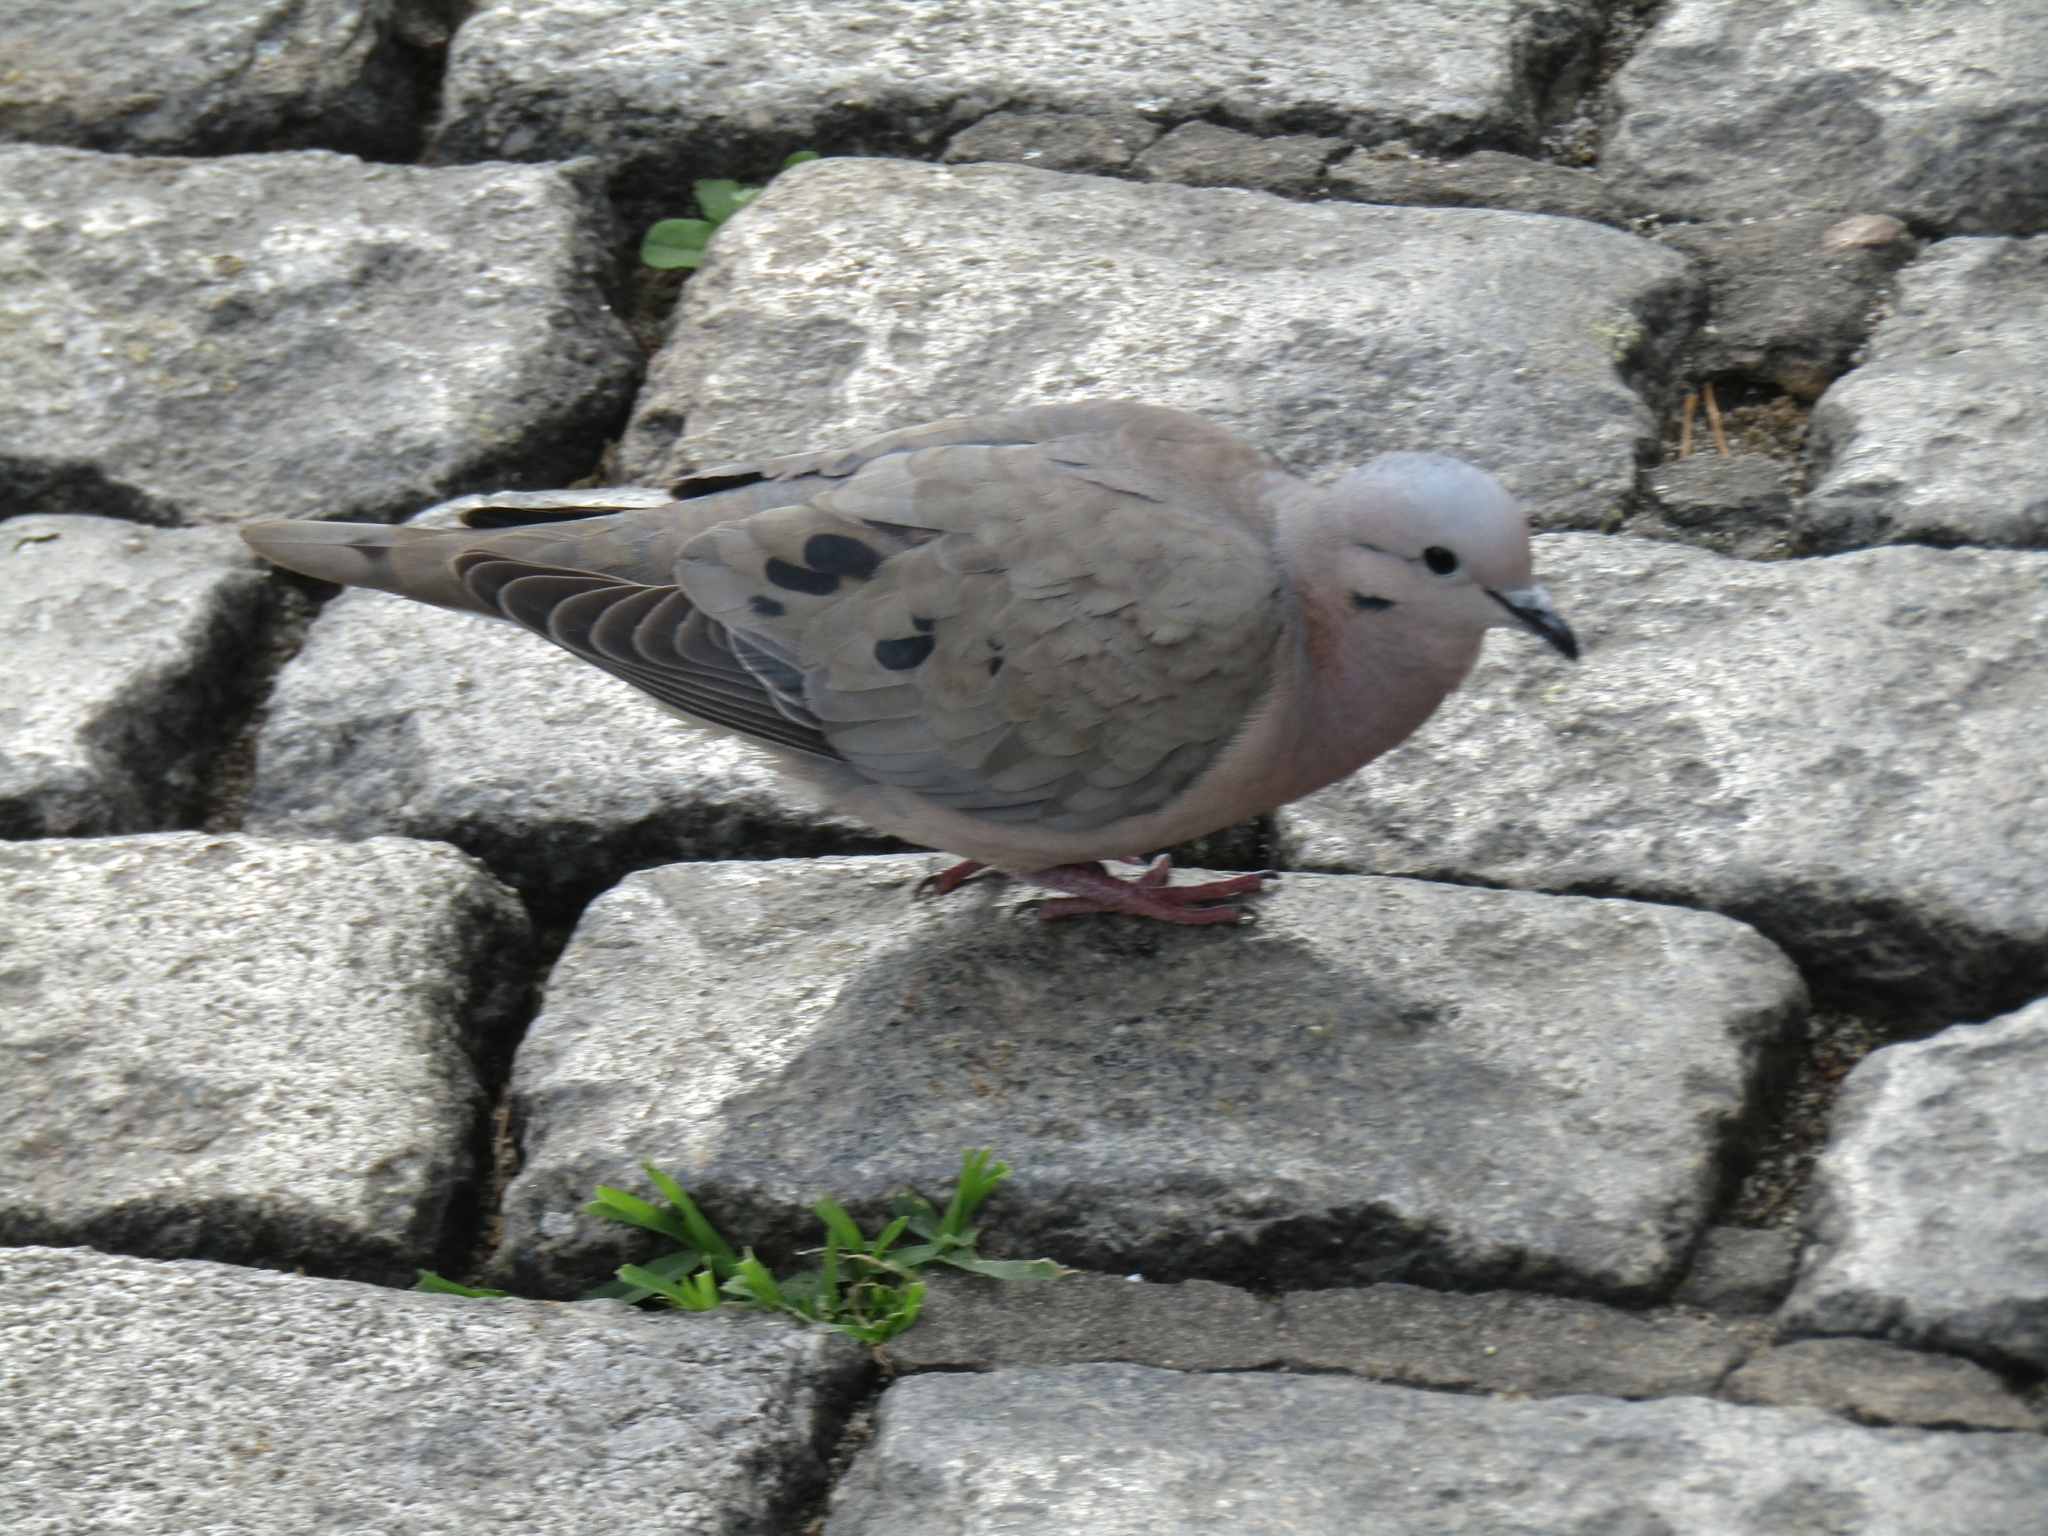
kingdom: Animalia
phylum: Chordata
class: Aves
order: Columbiformes
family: Columbidae
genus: Zenaida
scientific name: Zenaida auriculata
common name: Eared dove
